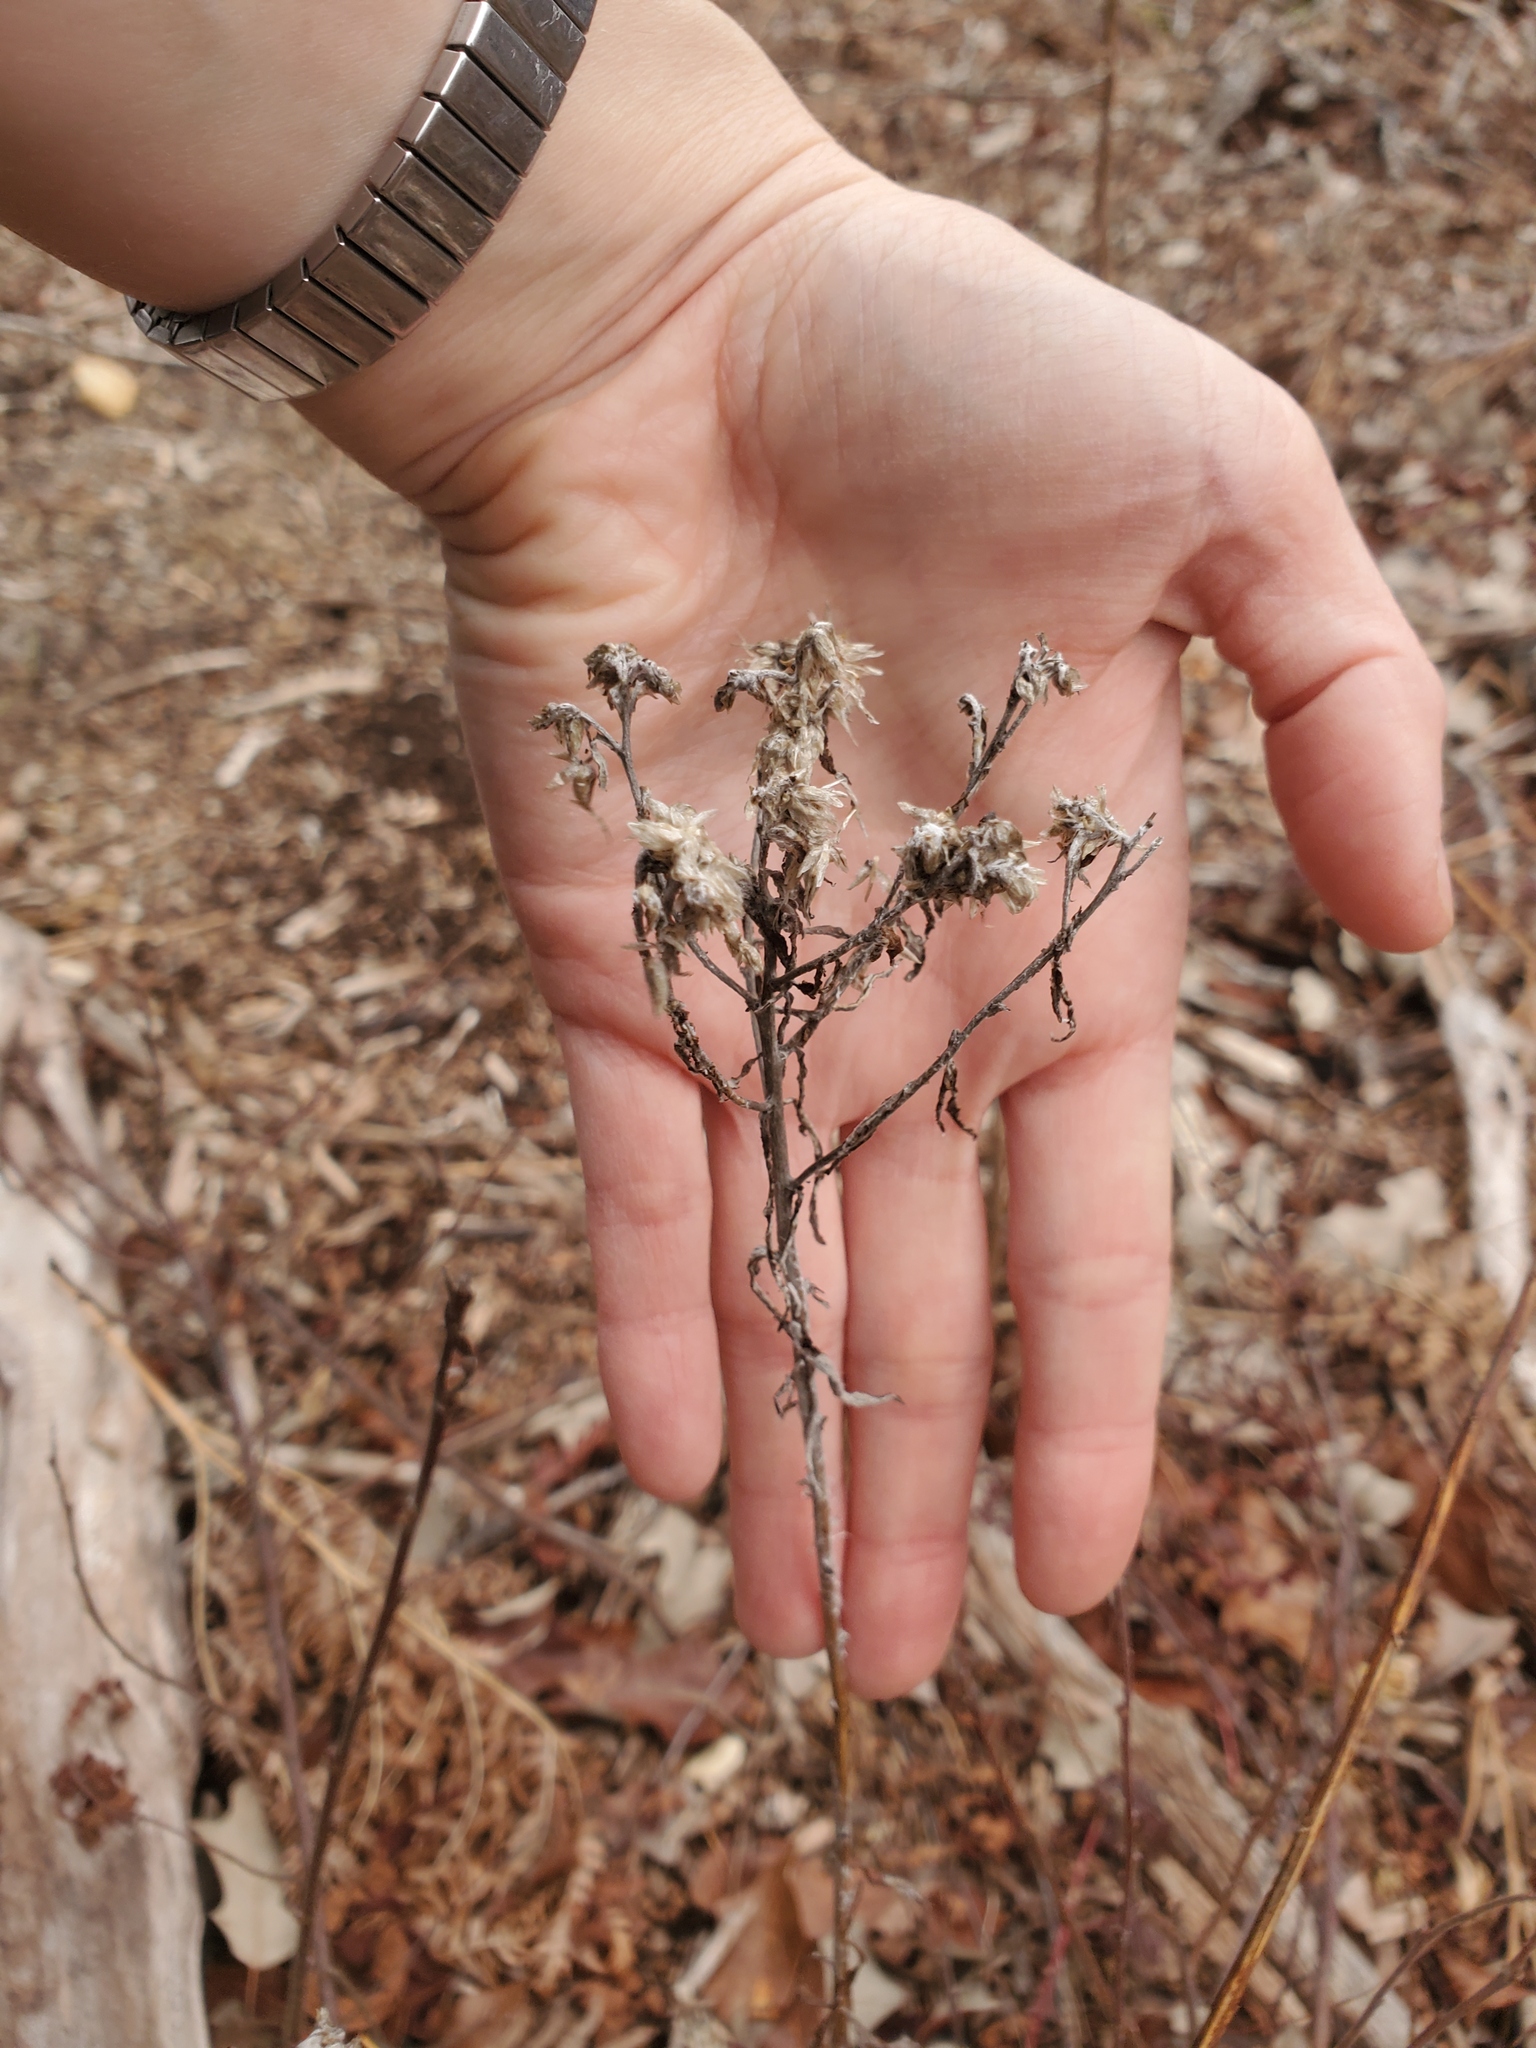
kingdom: Plantae
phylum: Tracheophyta
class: Magnoliopsida
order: Asterales
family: Asteraceae
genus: Pseudognaphalium
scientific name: Pseudognaphalium obtusifolium
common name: Eastern rabbit-tobacco
